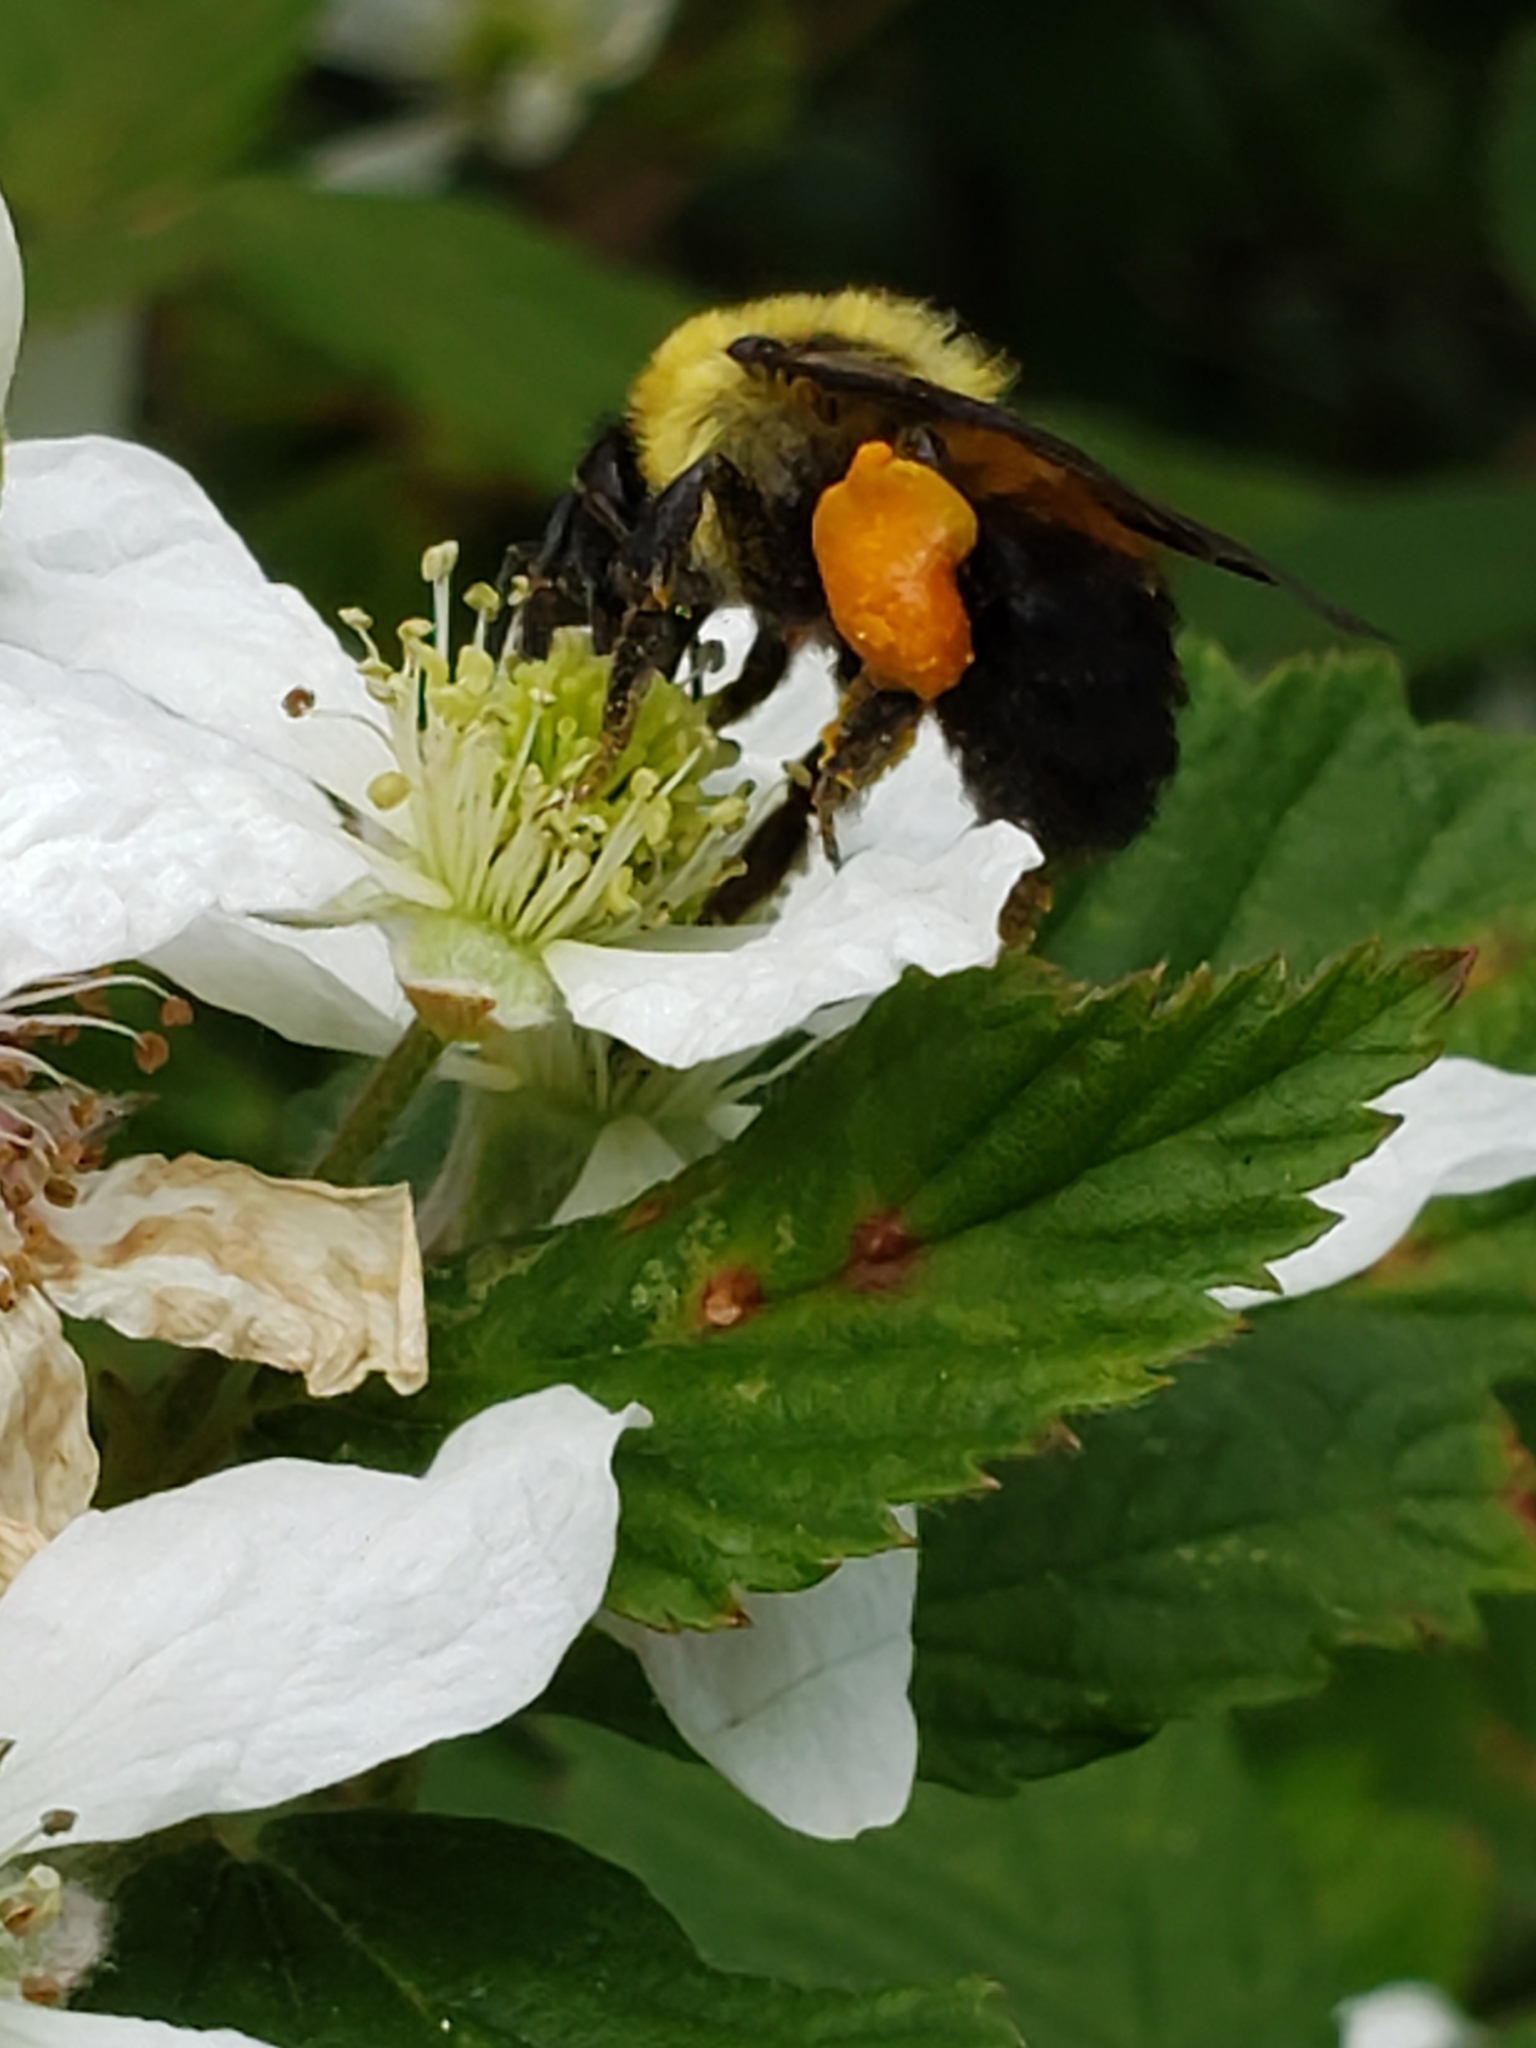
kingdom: Animalia
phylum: Arthropoda
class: Insecta
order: Hymenoptera
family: Apidae
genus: Bombus
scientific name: Bombus griseocollis
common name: Brown-belted bumble bee
